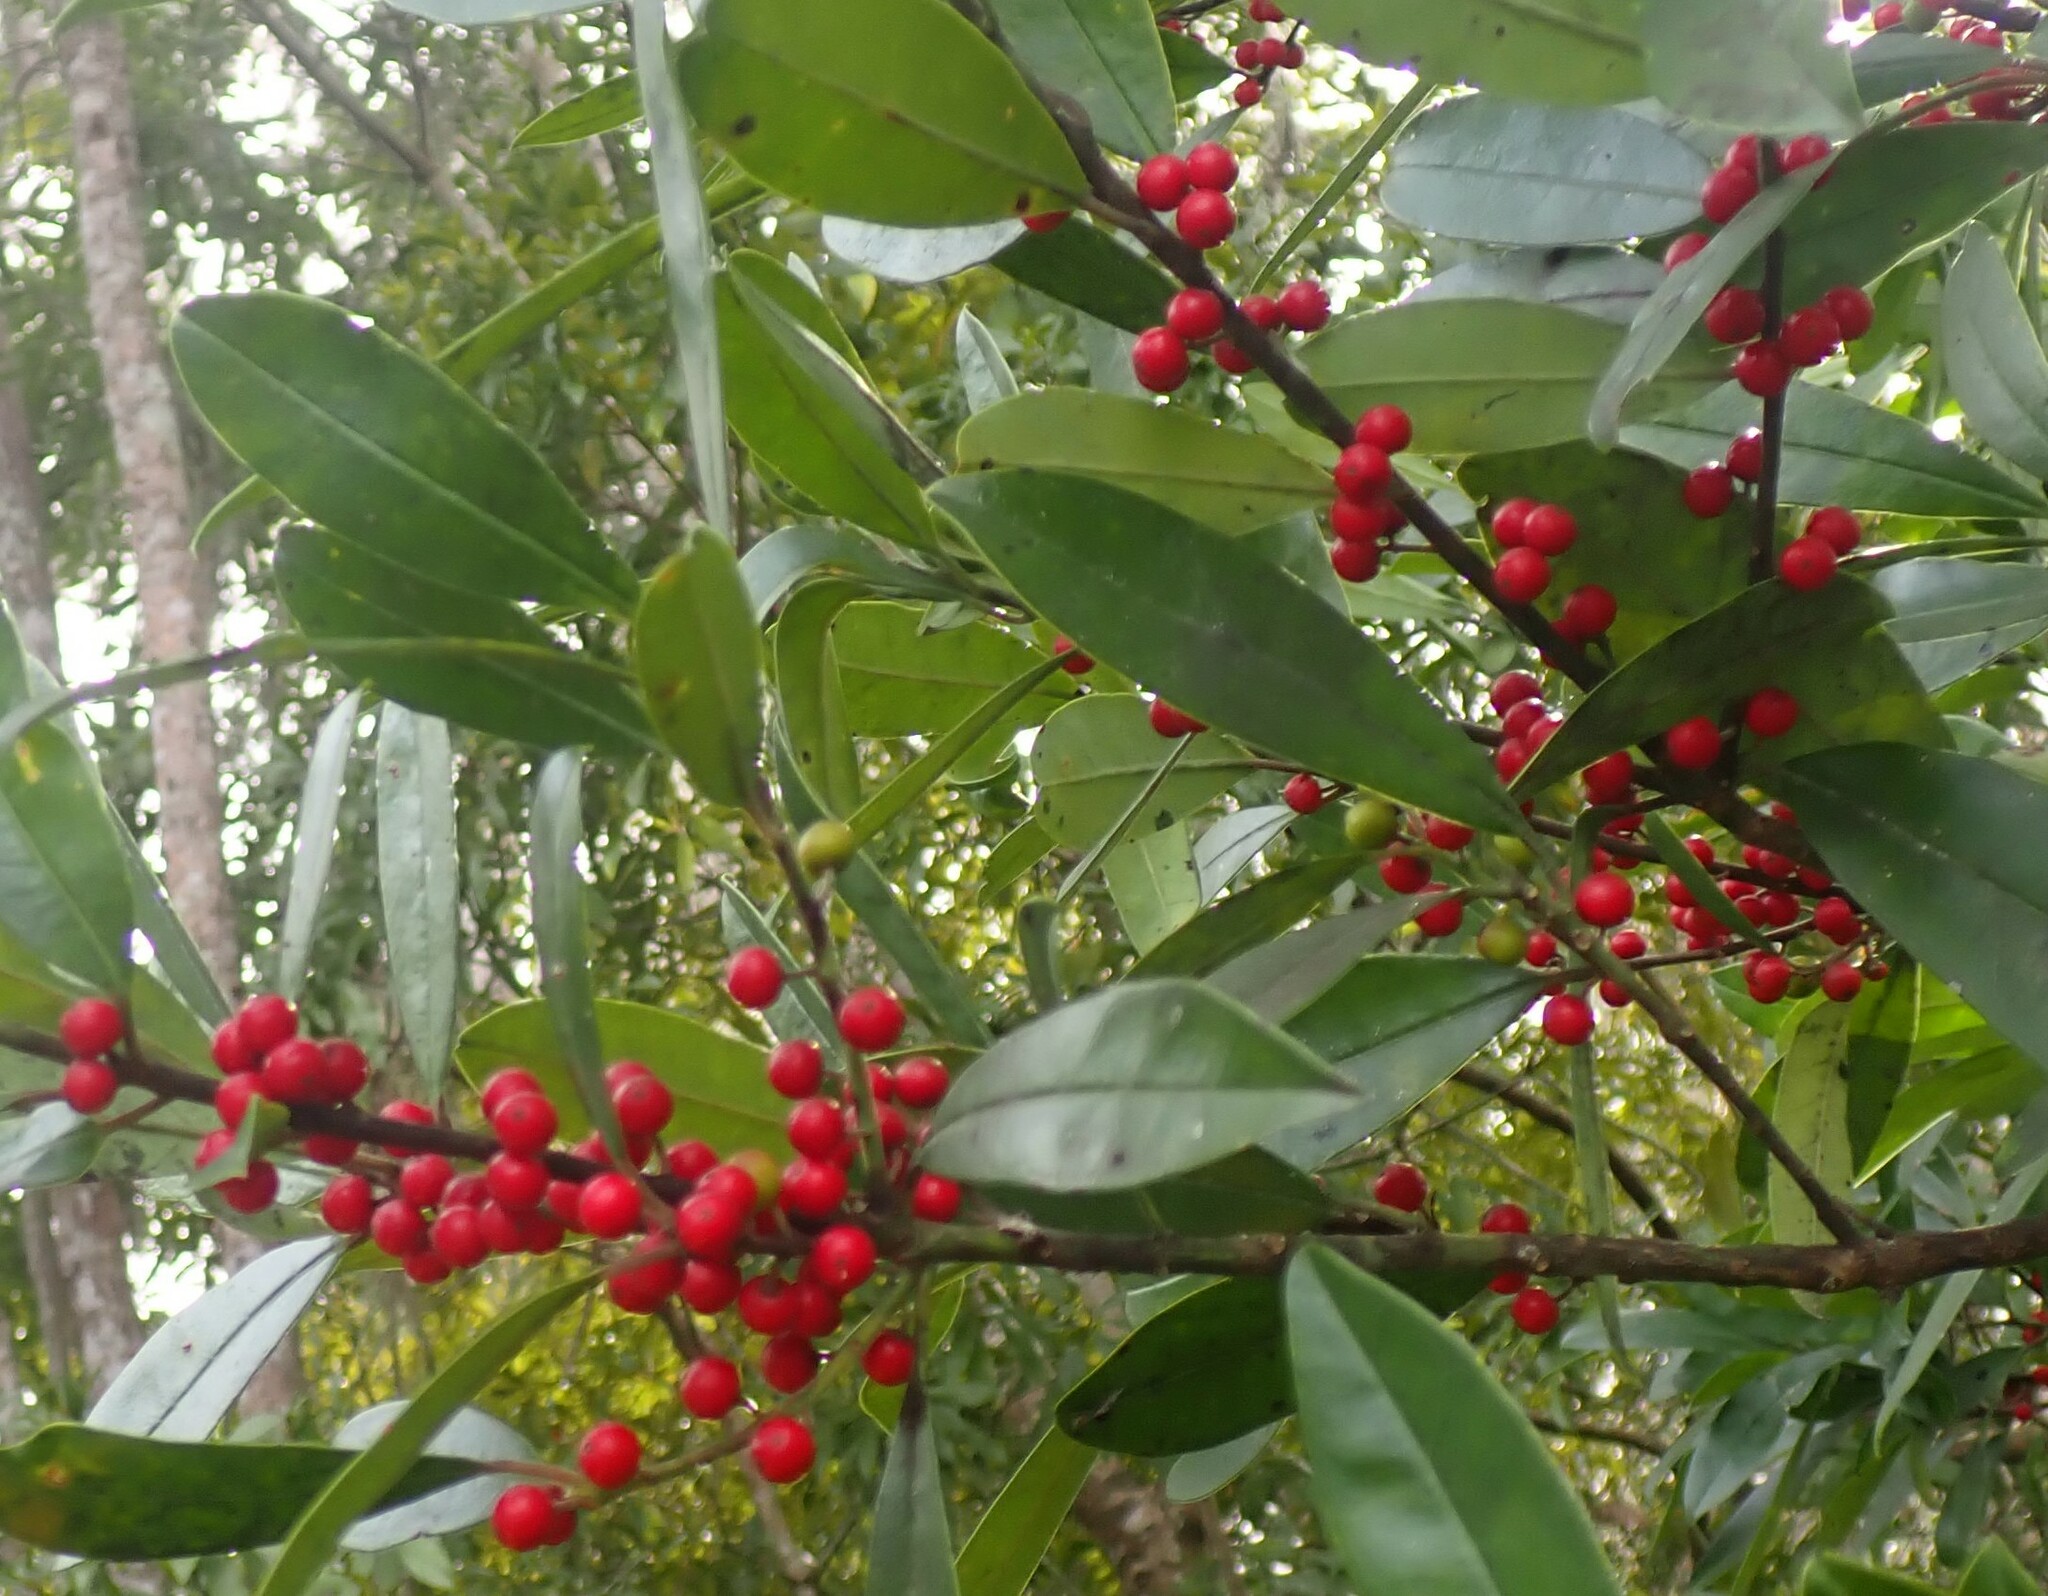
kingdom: Plantae
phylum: Tracheophyta
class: Magnoliopsida
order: Aquifoliales
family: Aquifoliaceae
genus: Ilex
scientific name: Ilex cassine
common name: Dahoon
